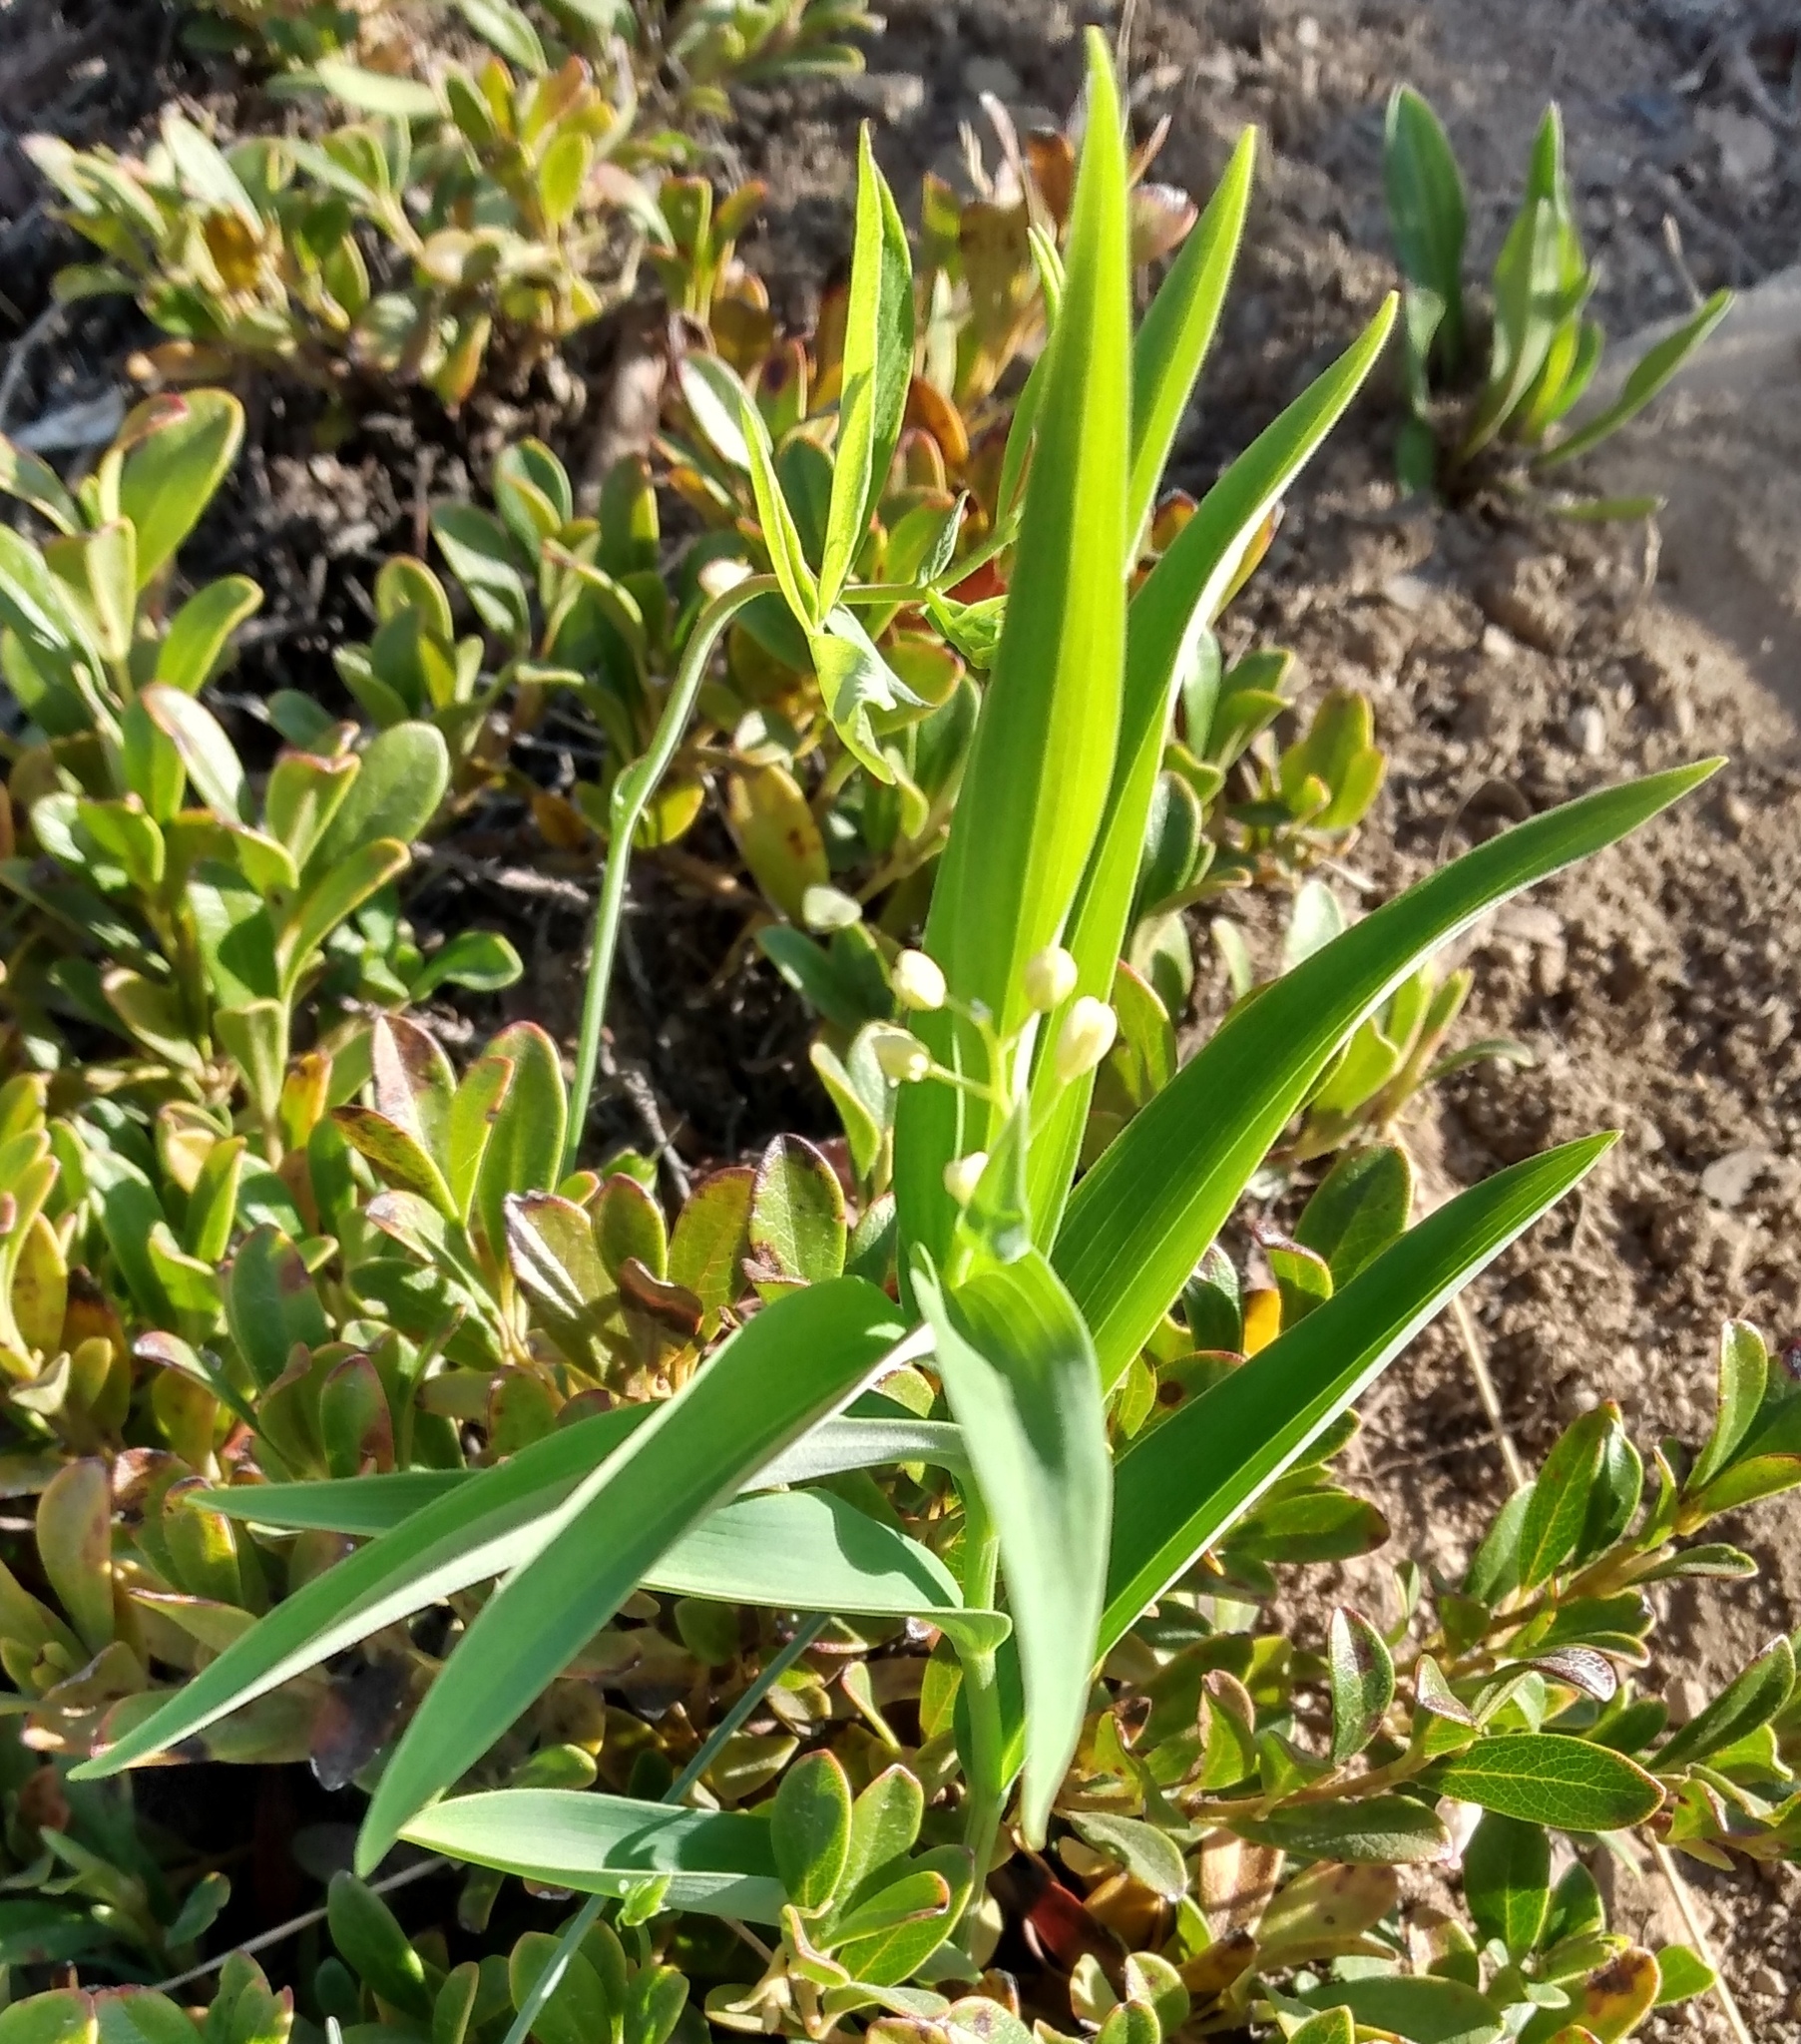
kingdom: Plantae
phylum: Tracheophyta
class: Liliopsida
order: Asparagales
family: Asparagaceae
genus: Maianthemum
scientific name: Maianthemum stellatum
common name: Little false solomon's seal
